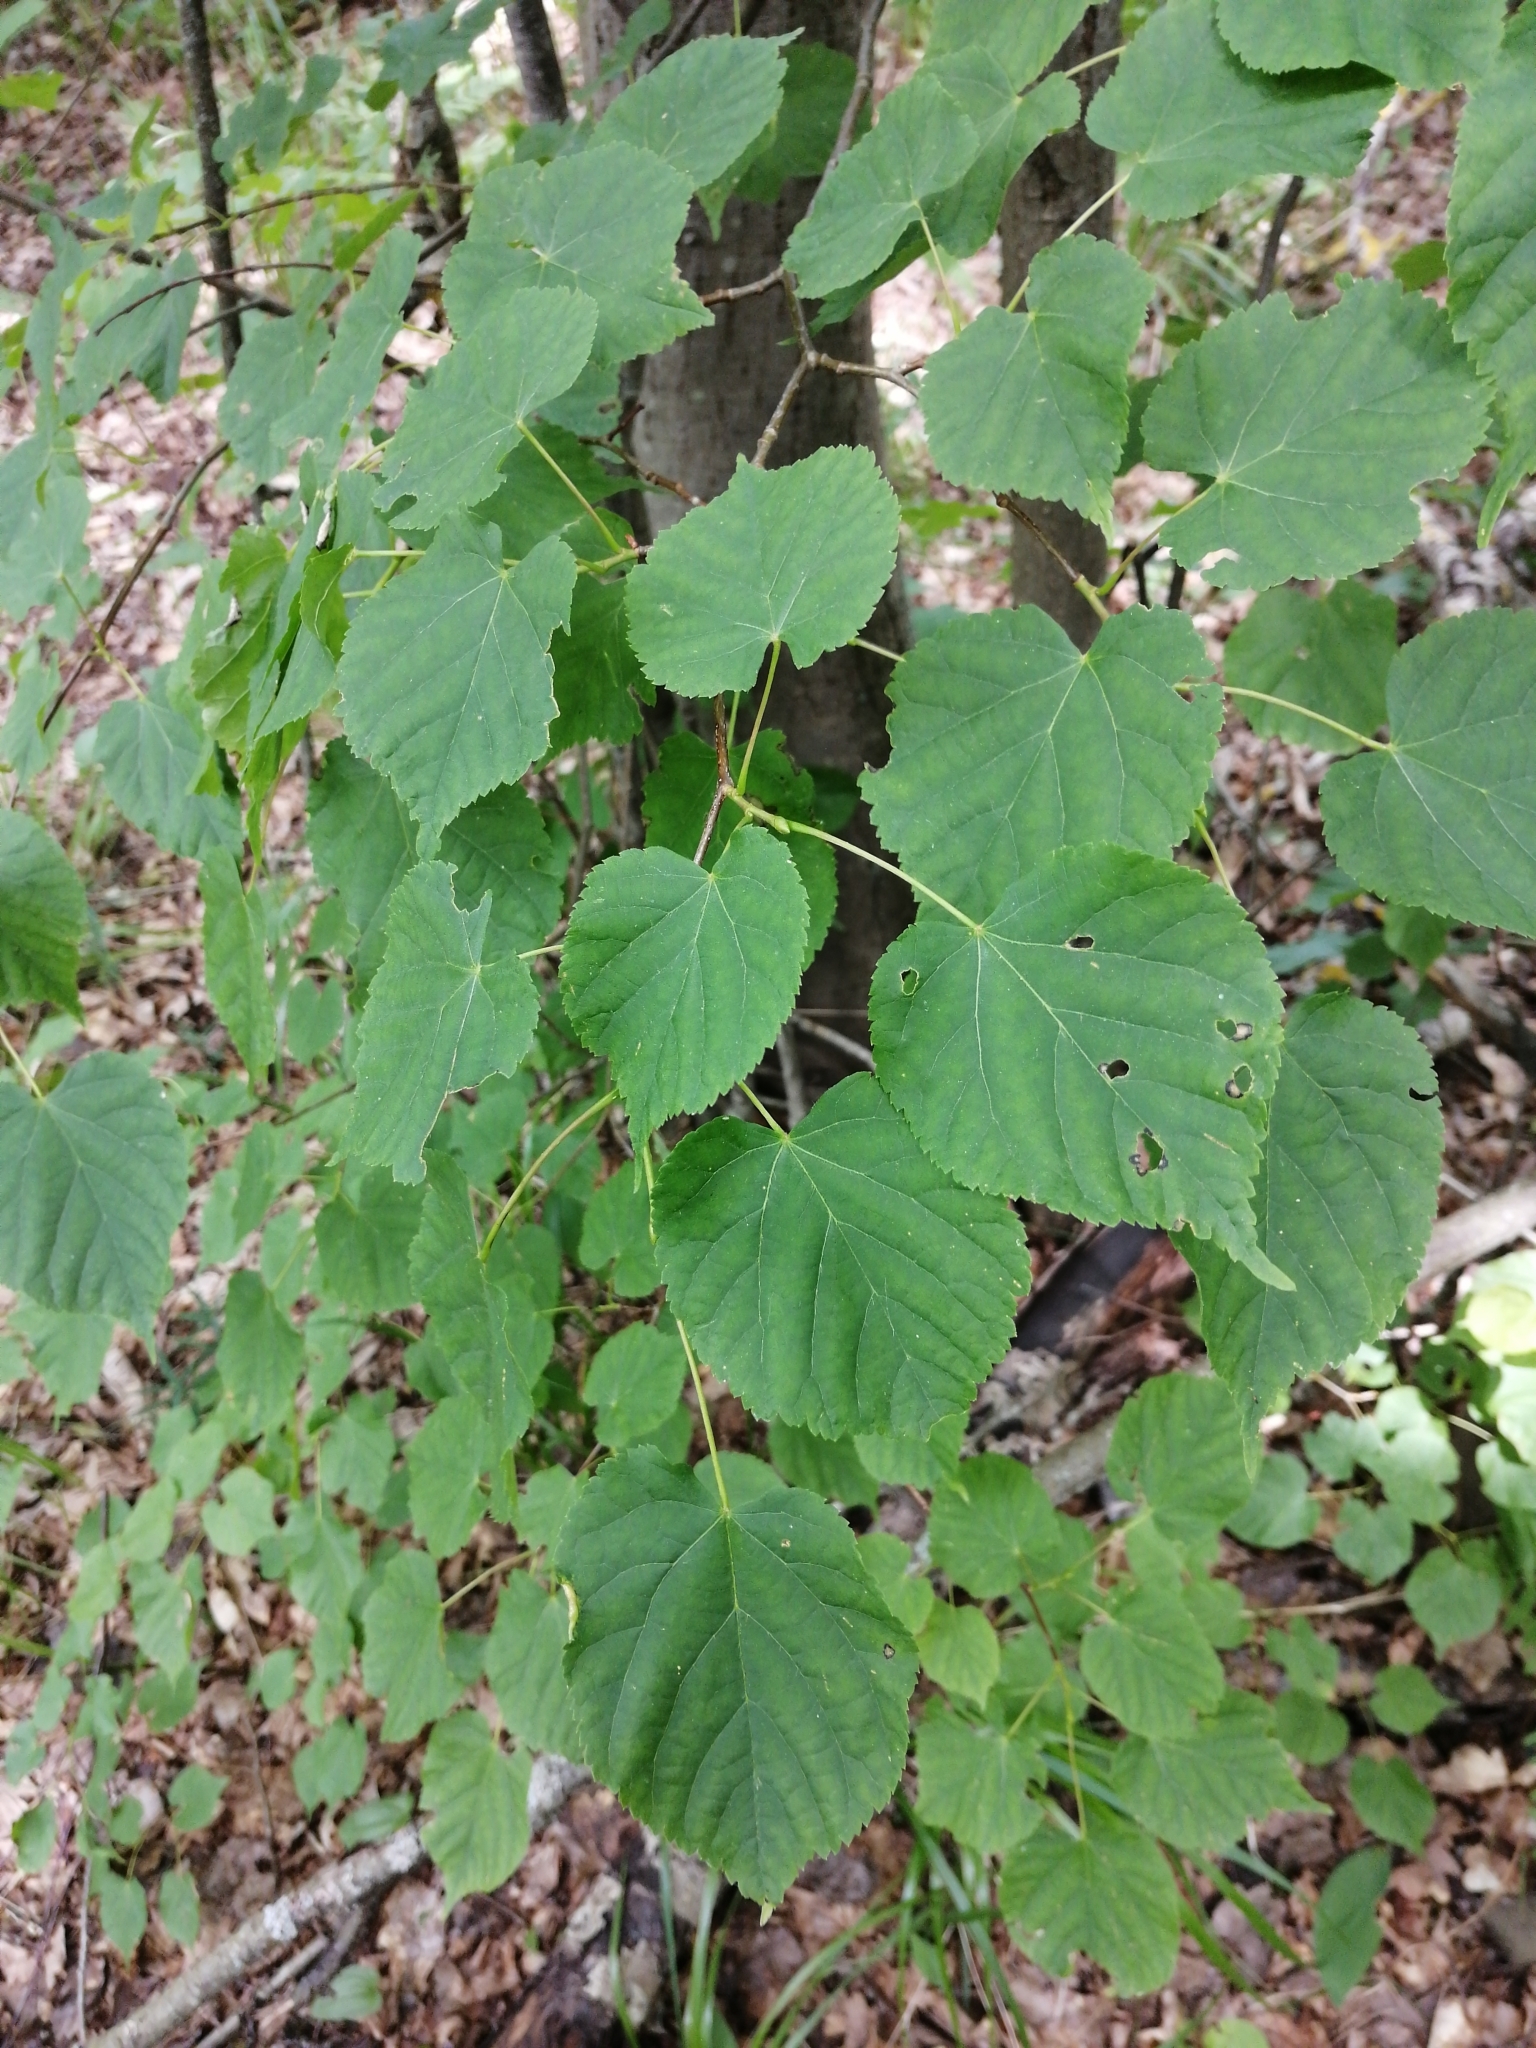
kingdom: Plantae
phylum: Tracheophyta
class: Magnoliopsida
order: Malvales
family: Malvaceae
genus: Tilia
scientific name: Tilia cordata
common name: Small-leaved lime
